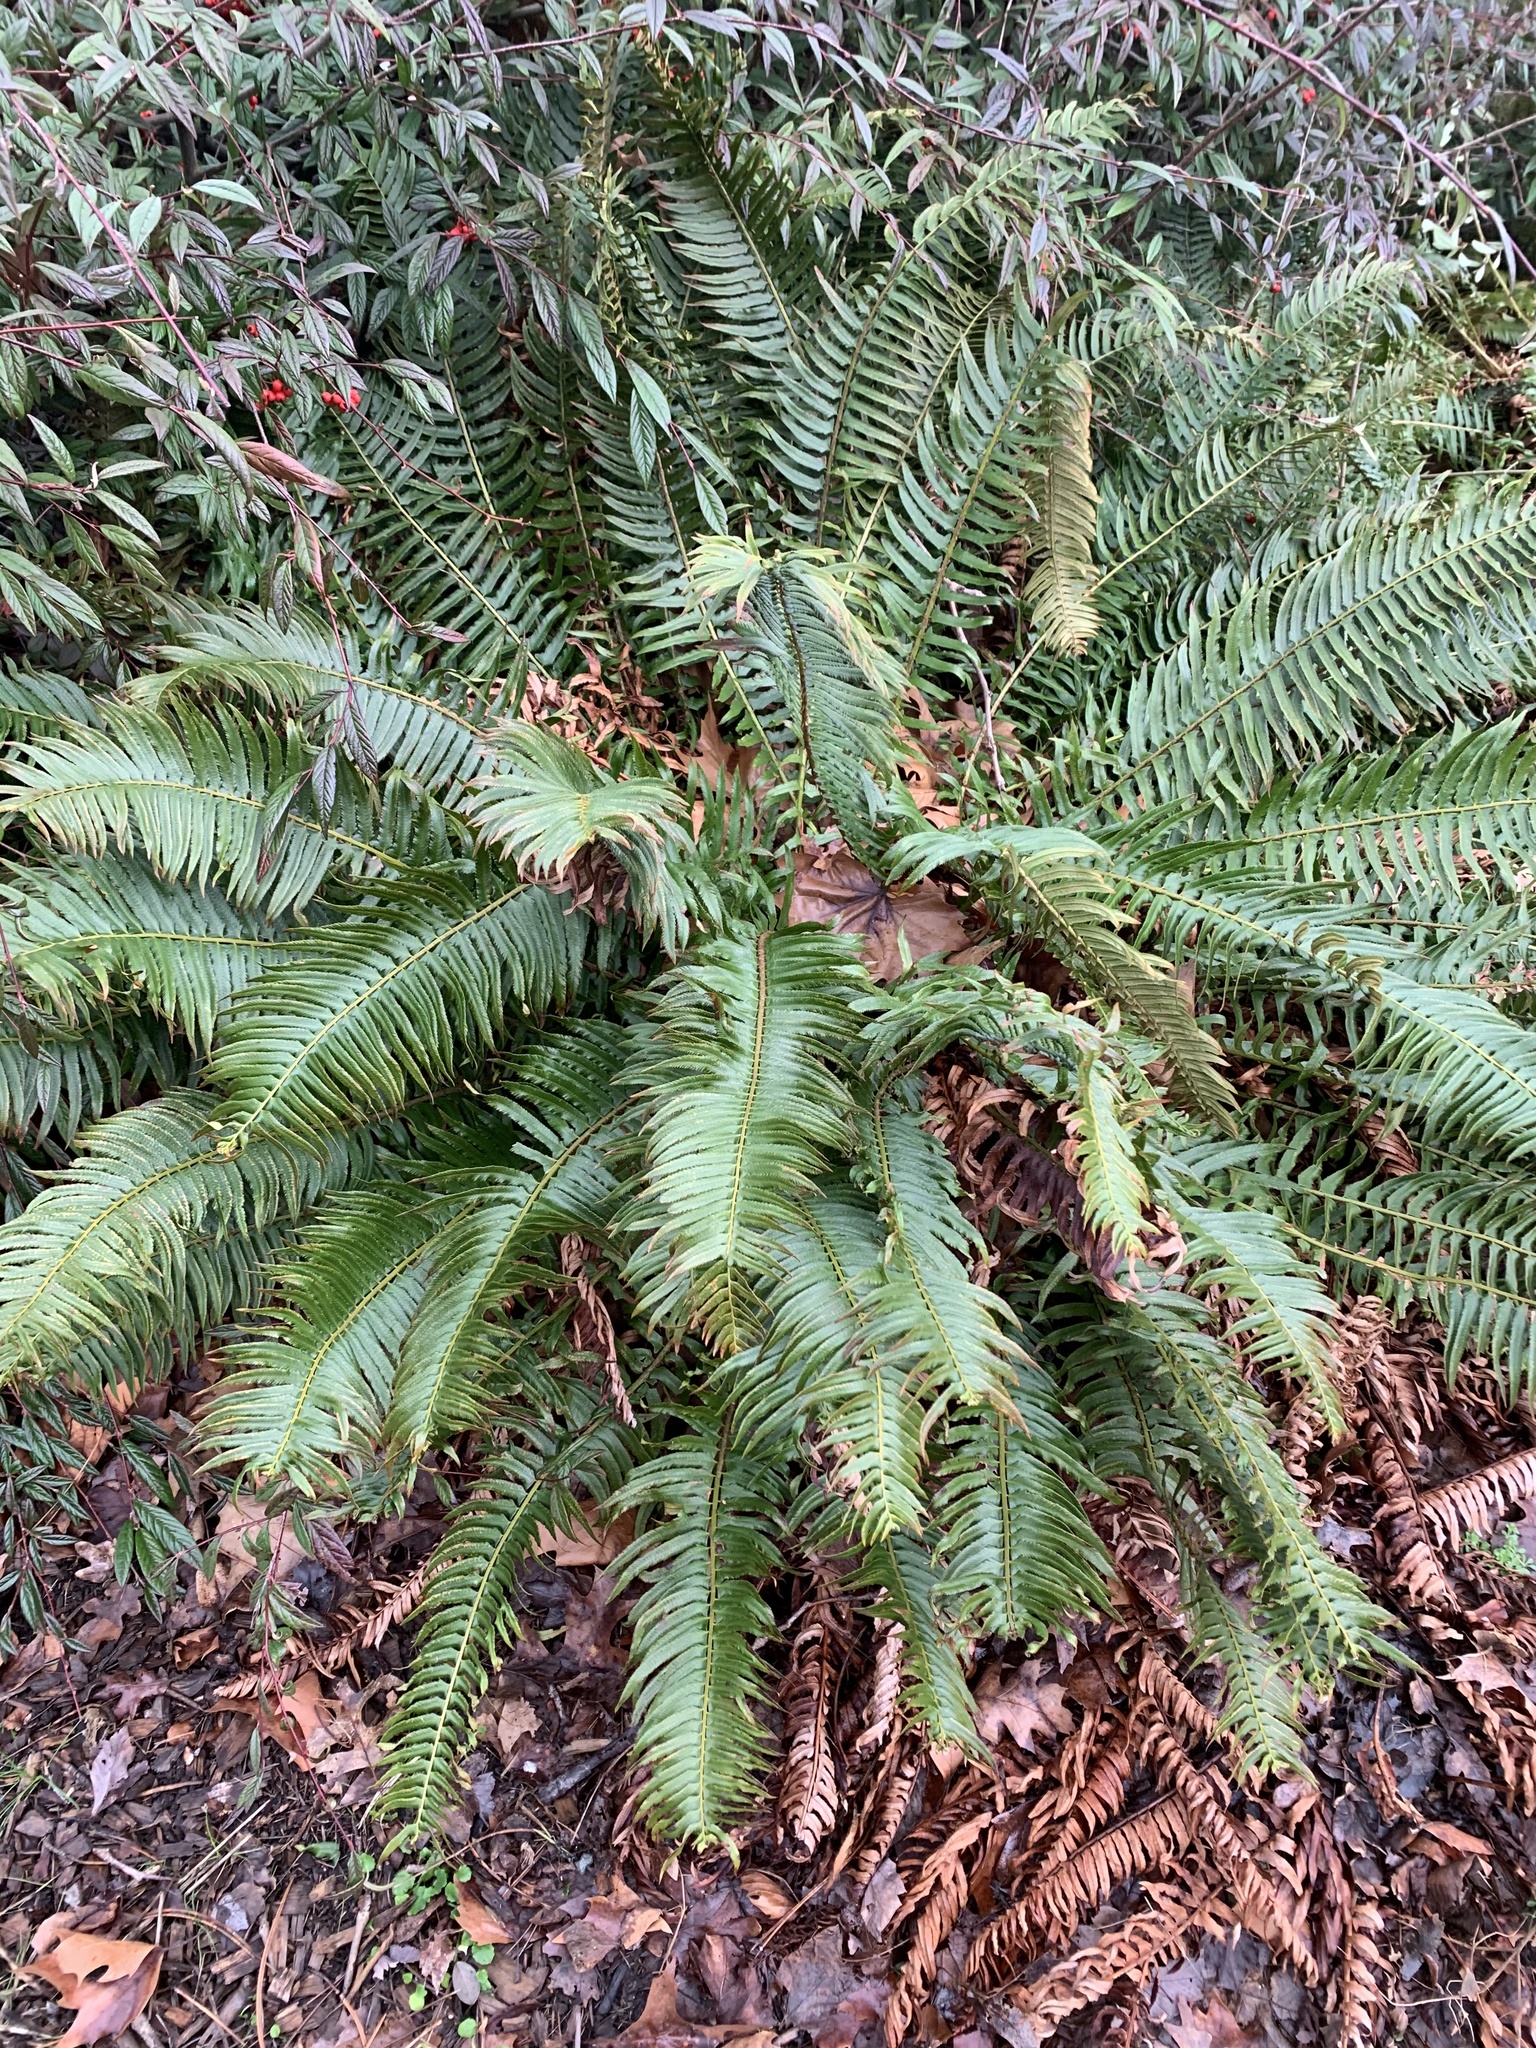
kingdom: Plantae
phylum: Tracheophyta
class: Polypodiopsida
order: Polypodiales
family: Dryopteridaceae
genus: Polystichum
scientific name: Polystichum munitum
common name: Western sword-fern
